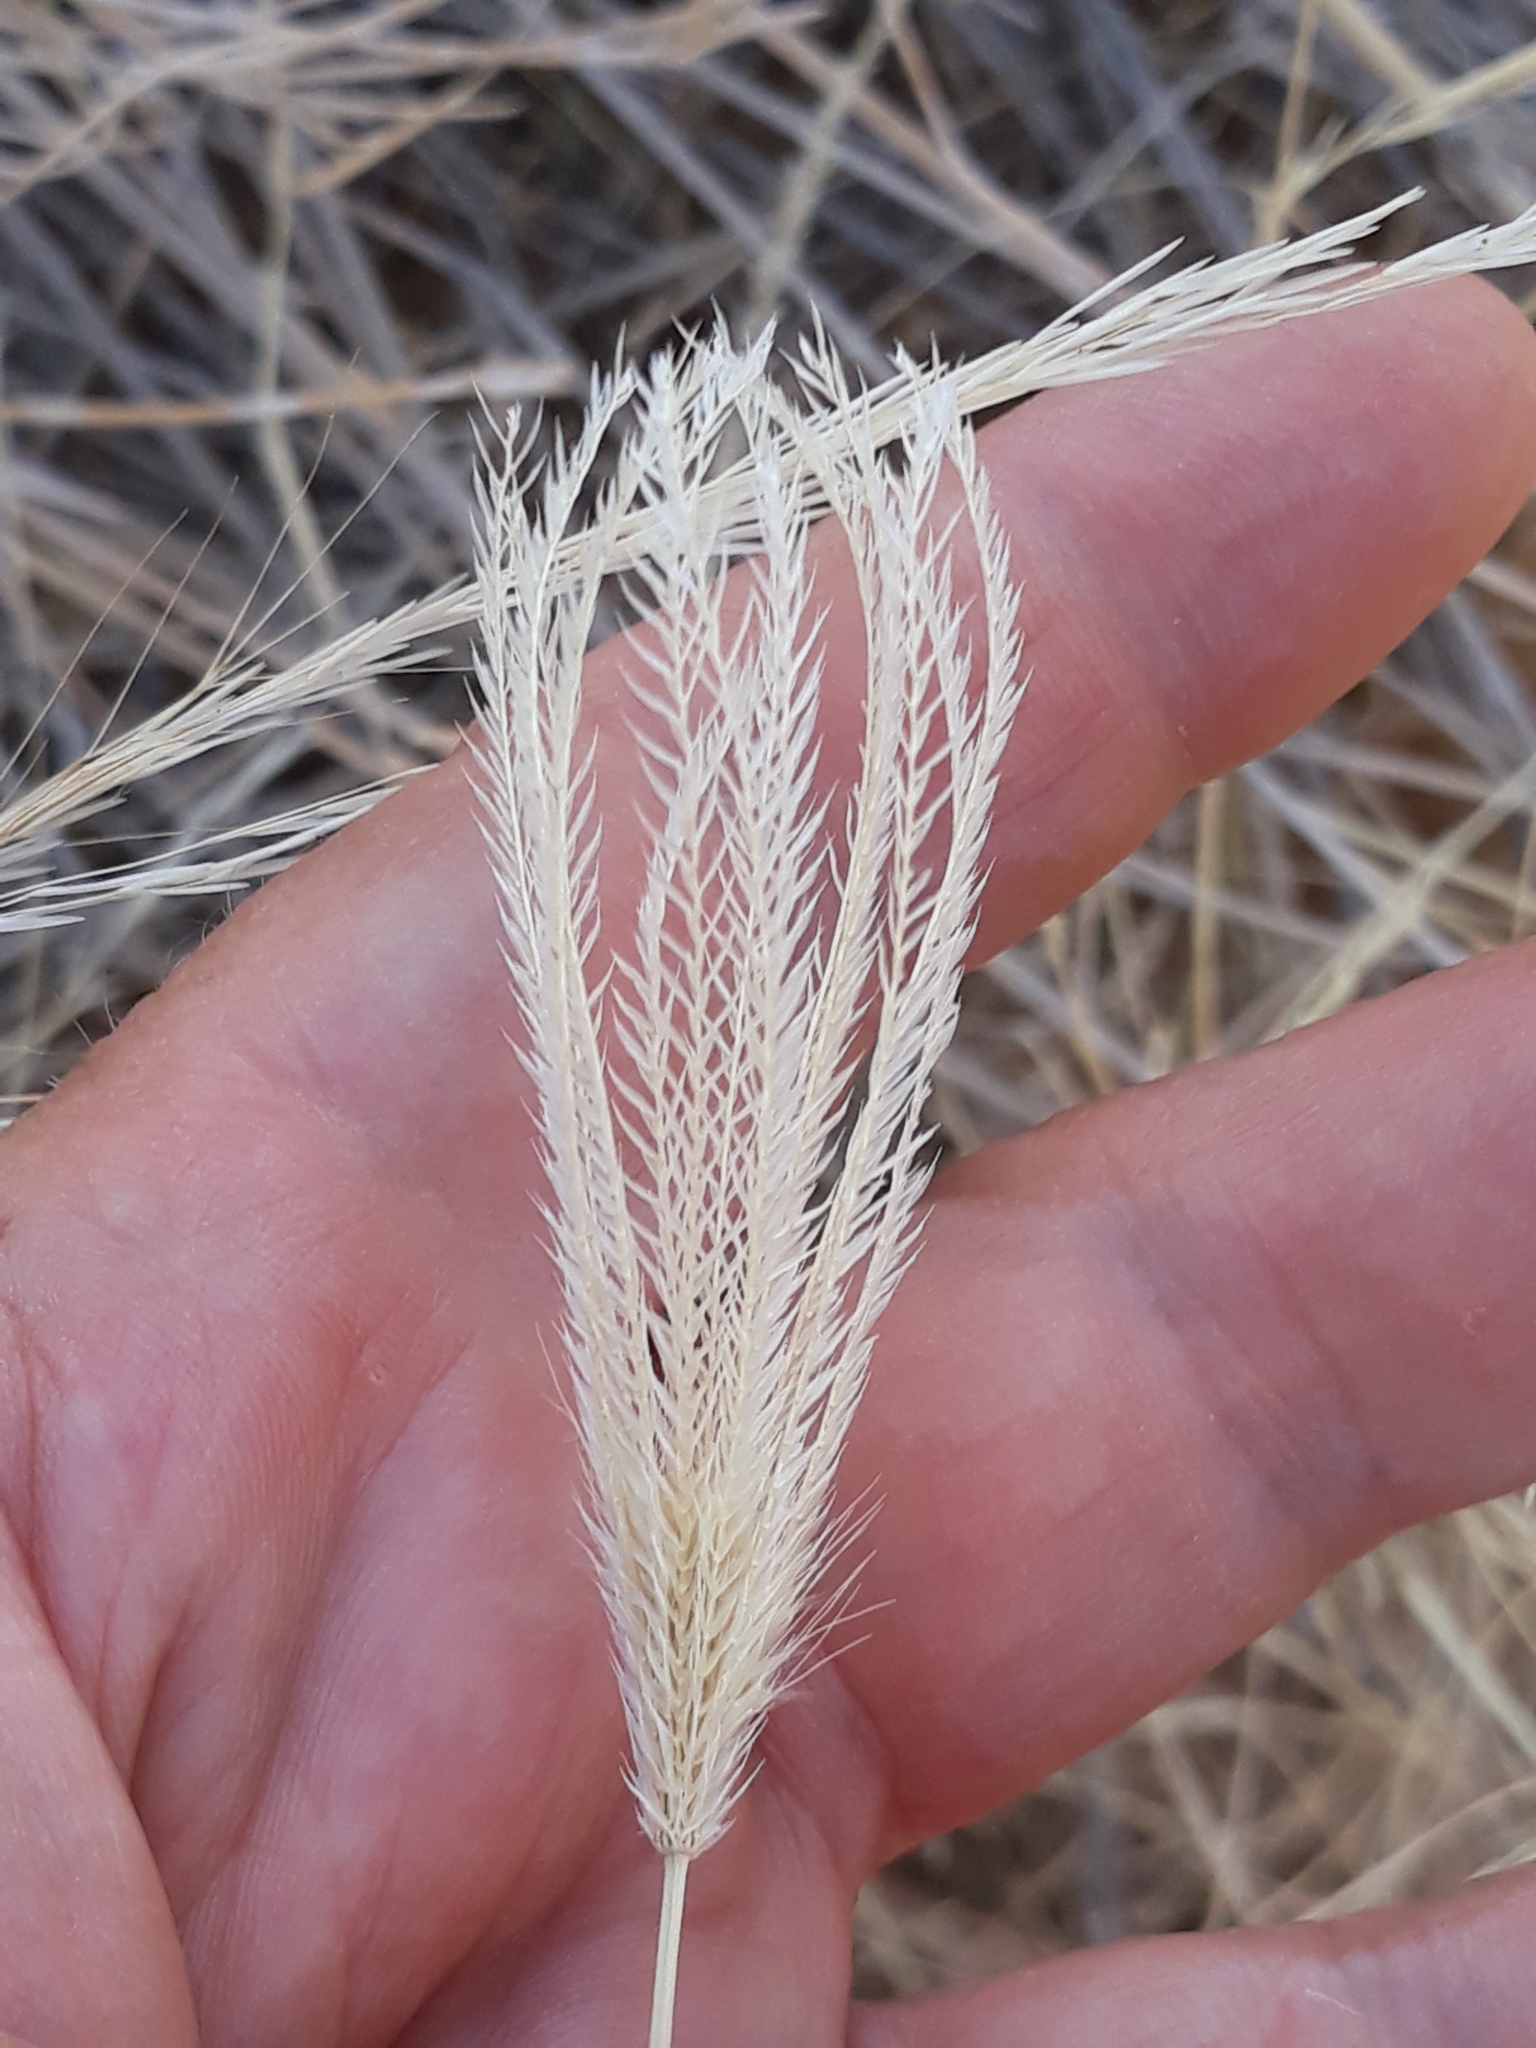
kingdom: Plantae
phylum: Tracheophyta
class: Liliopsida
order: Poales
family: Poaceae
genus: Chloris
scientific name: Chloris virgata
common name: Feathery rhodes-grass
